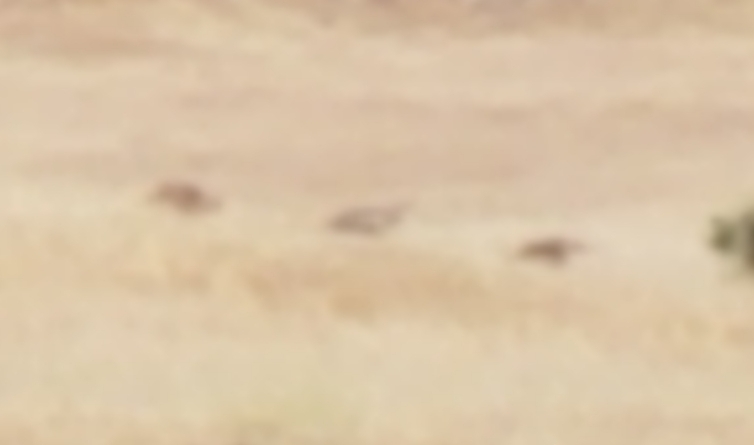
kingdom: Animalia
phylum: Chordata
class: Aves
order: Galliformes
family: Phasianidae
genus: Meleagris
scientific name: Meleagris gallopavo
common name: Wild turkey
